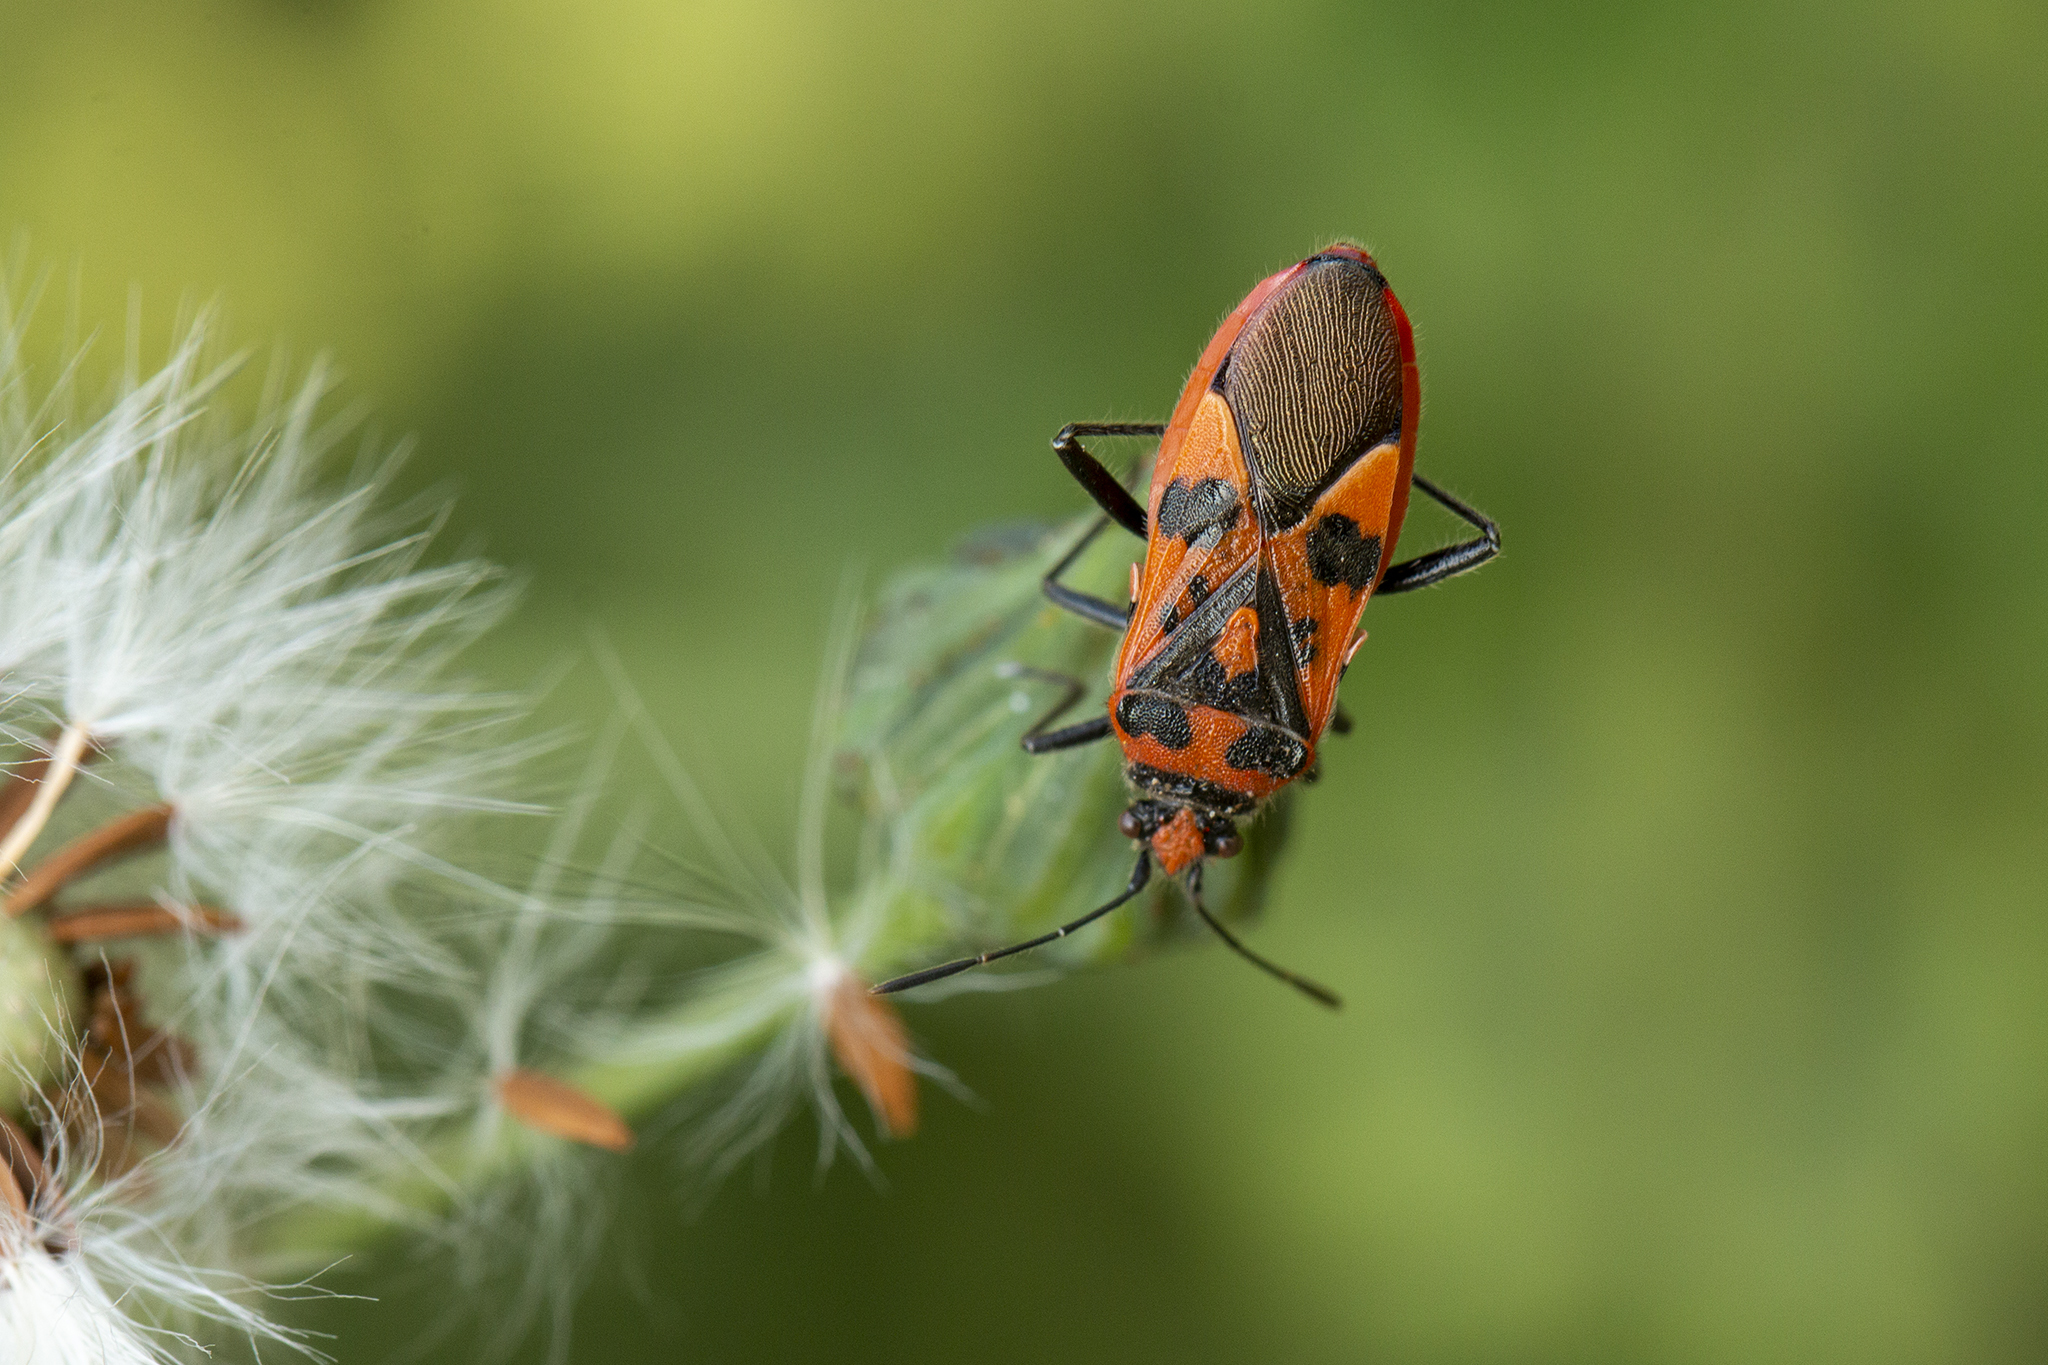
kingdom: Animalia
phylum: Arthropoda
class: Insecta
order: Hemiptera
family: Rhopalidae
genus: Corizus
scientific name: Corizus hyoscyami
